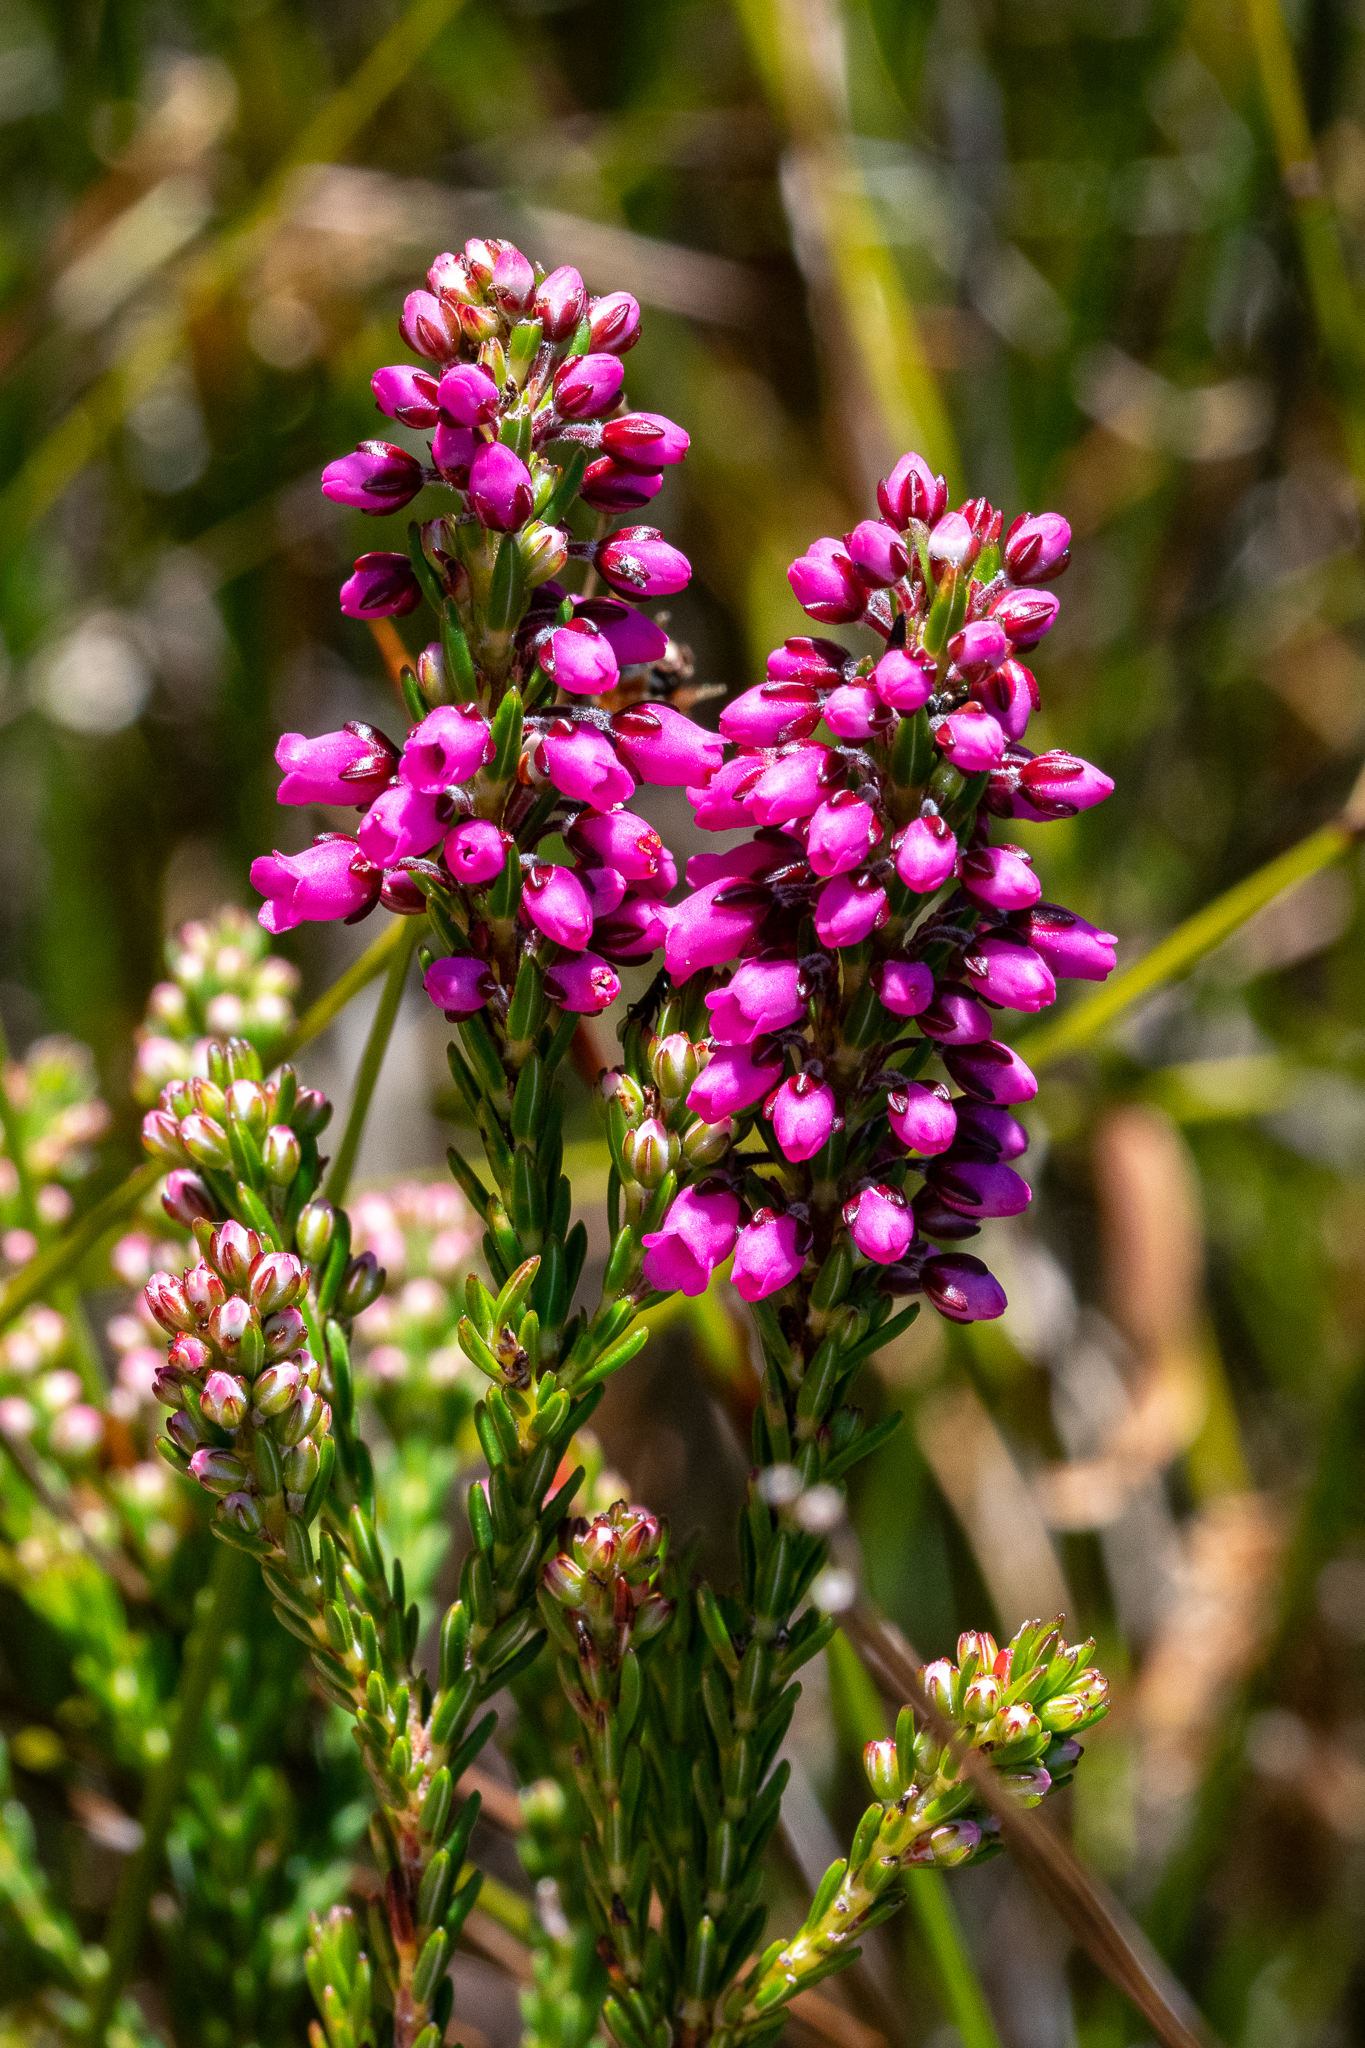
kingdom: Plantae
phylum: Tracheophyta
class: Magnoliopsida
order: Ericales
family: Ericaceae
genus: Erica
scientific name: Erica pulchella
